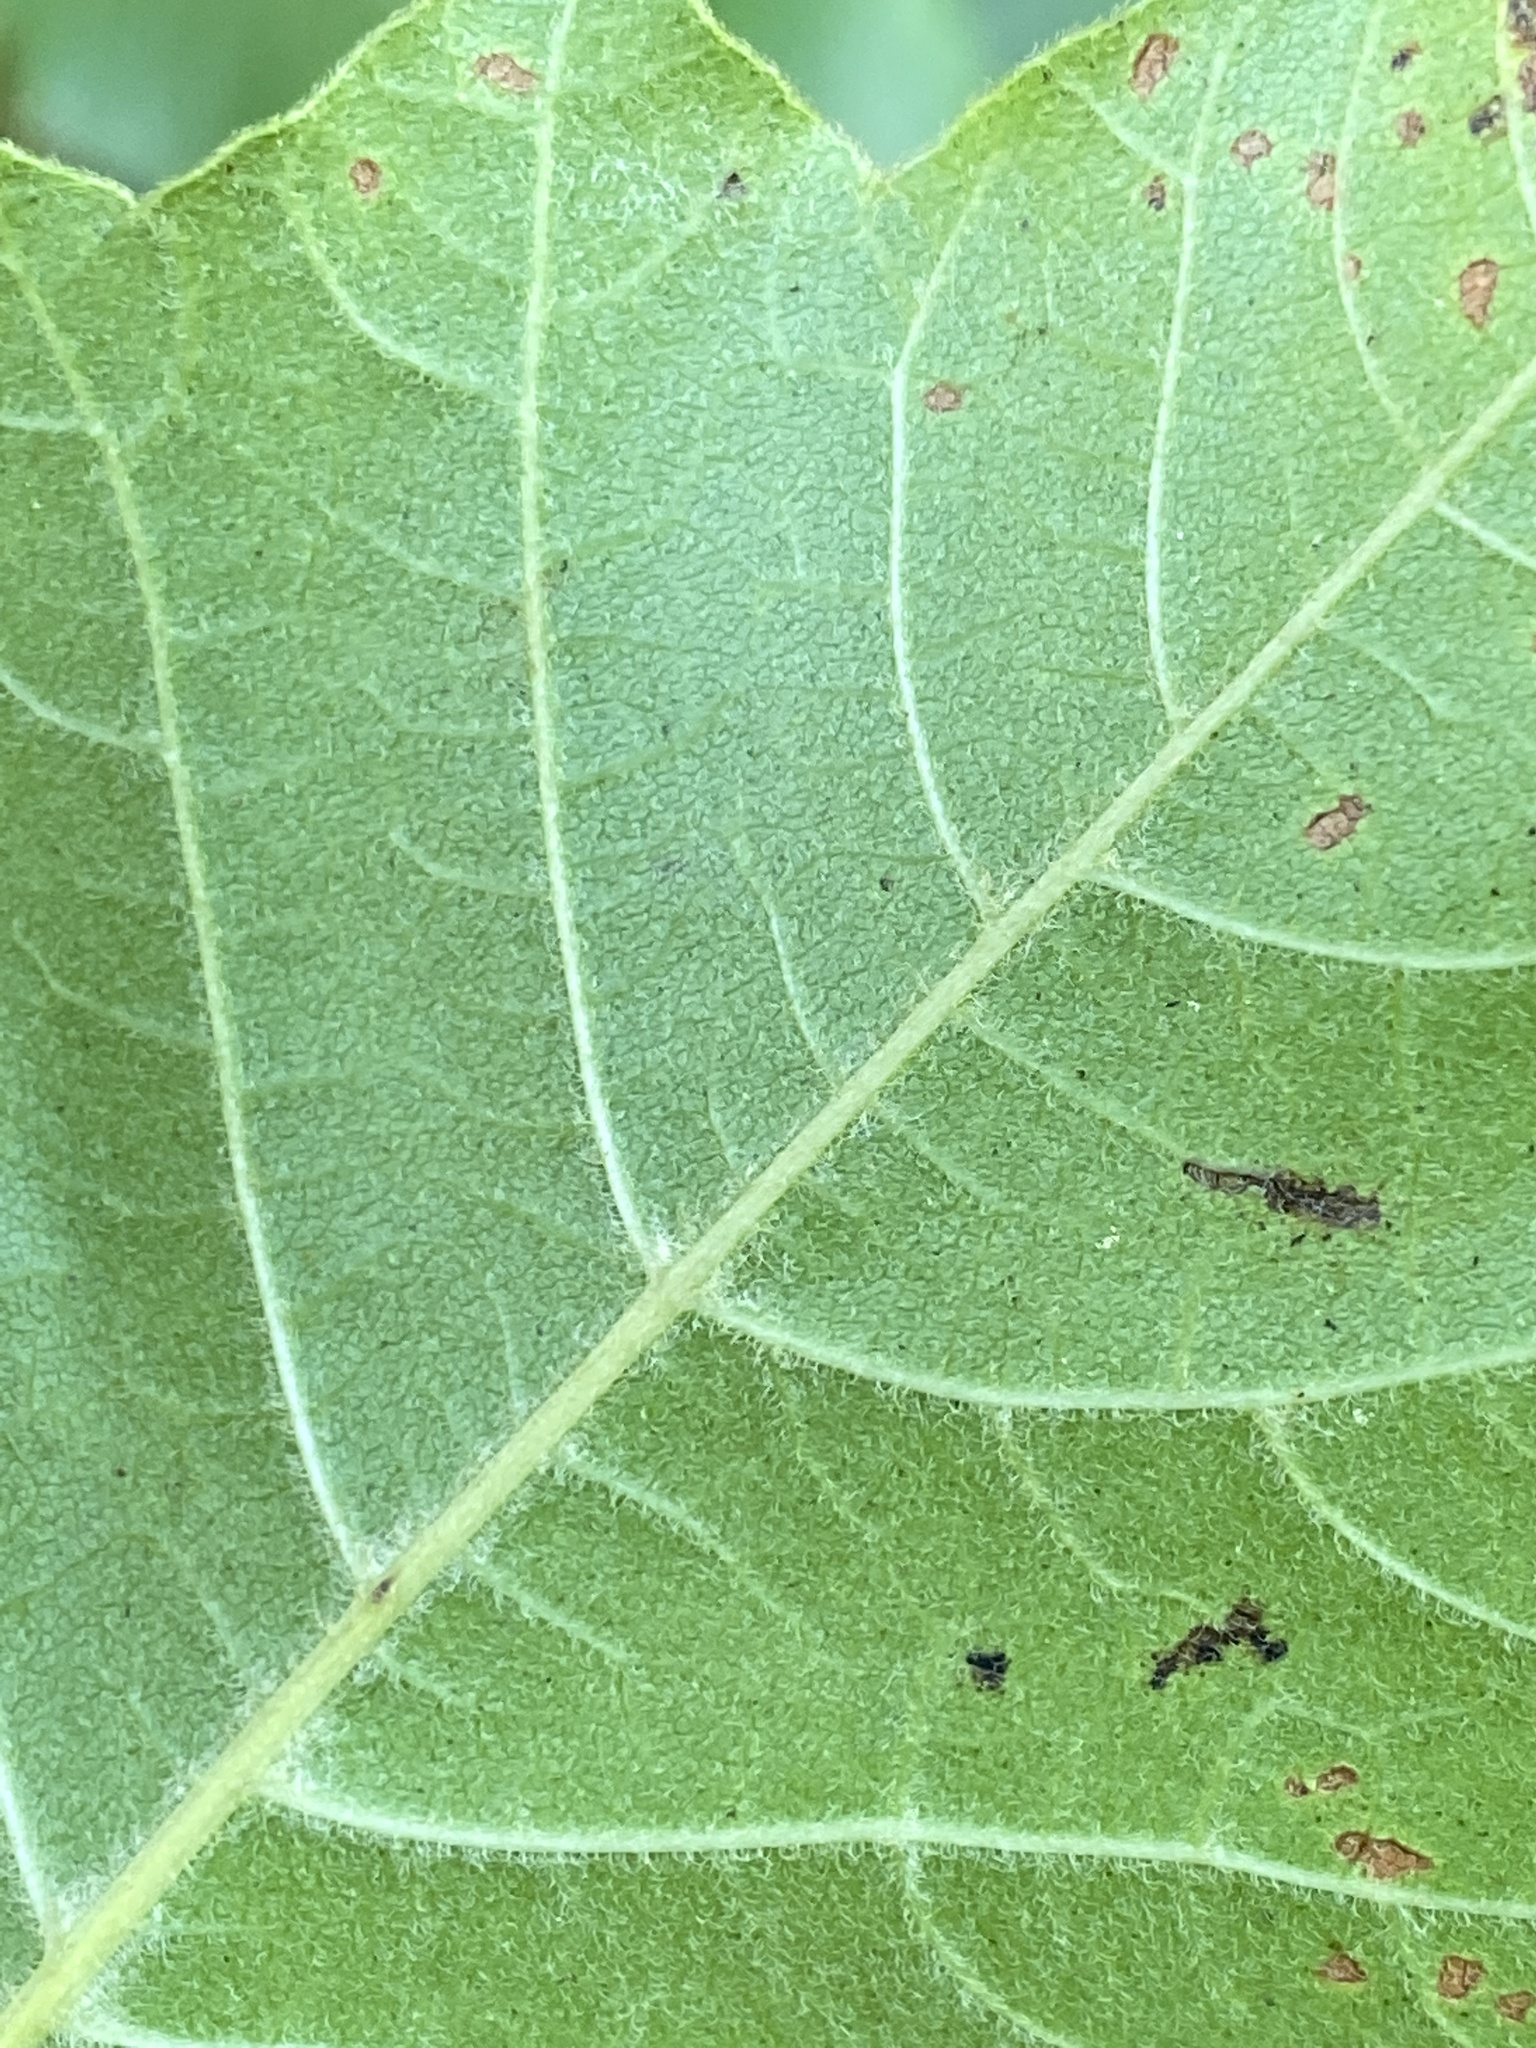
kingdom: Plantae
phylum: Tracheophyta
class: Magnoliopsida
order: Sapindales
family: Anacardiaceae
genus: Toxicodendron
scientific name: Toxicodendron pubescens
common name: Eastern poison-oak
